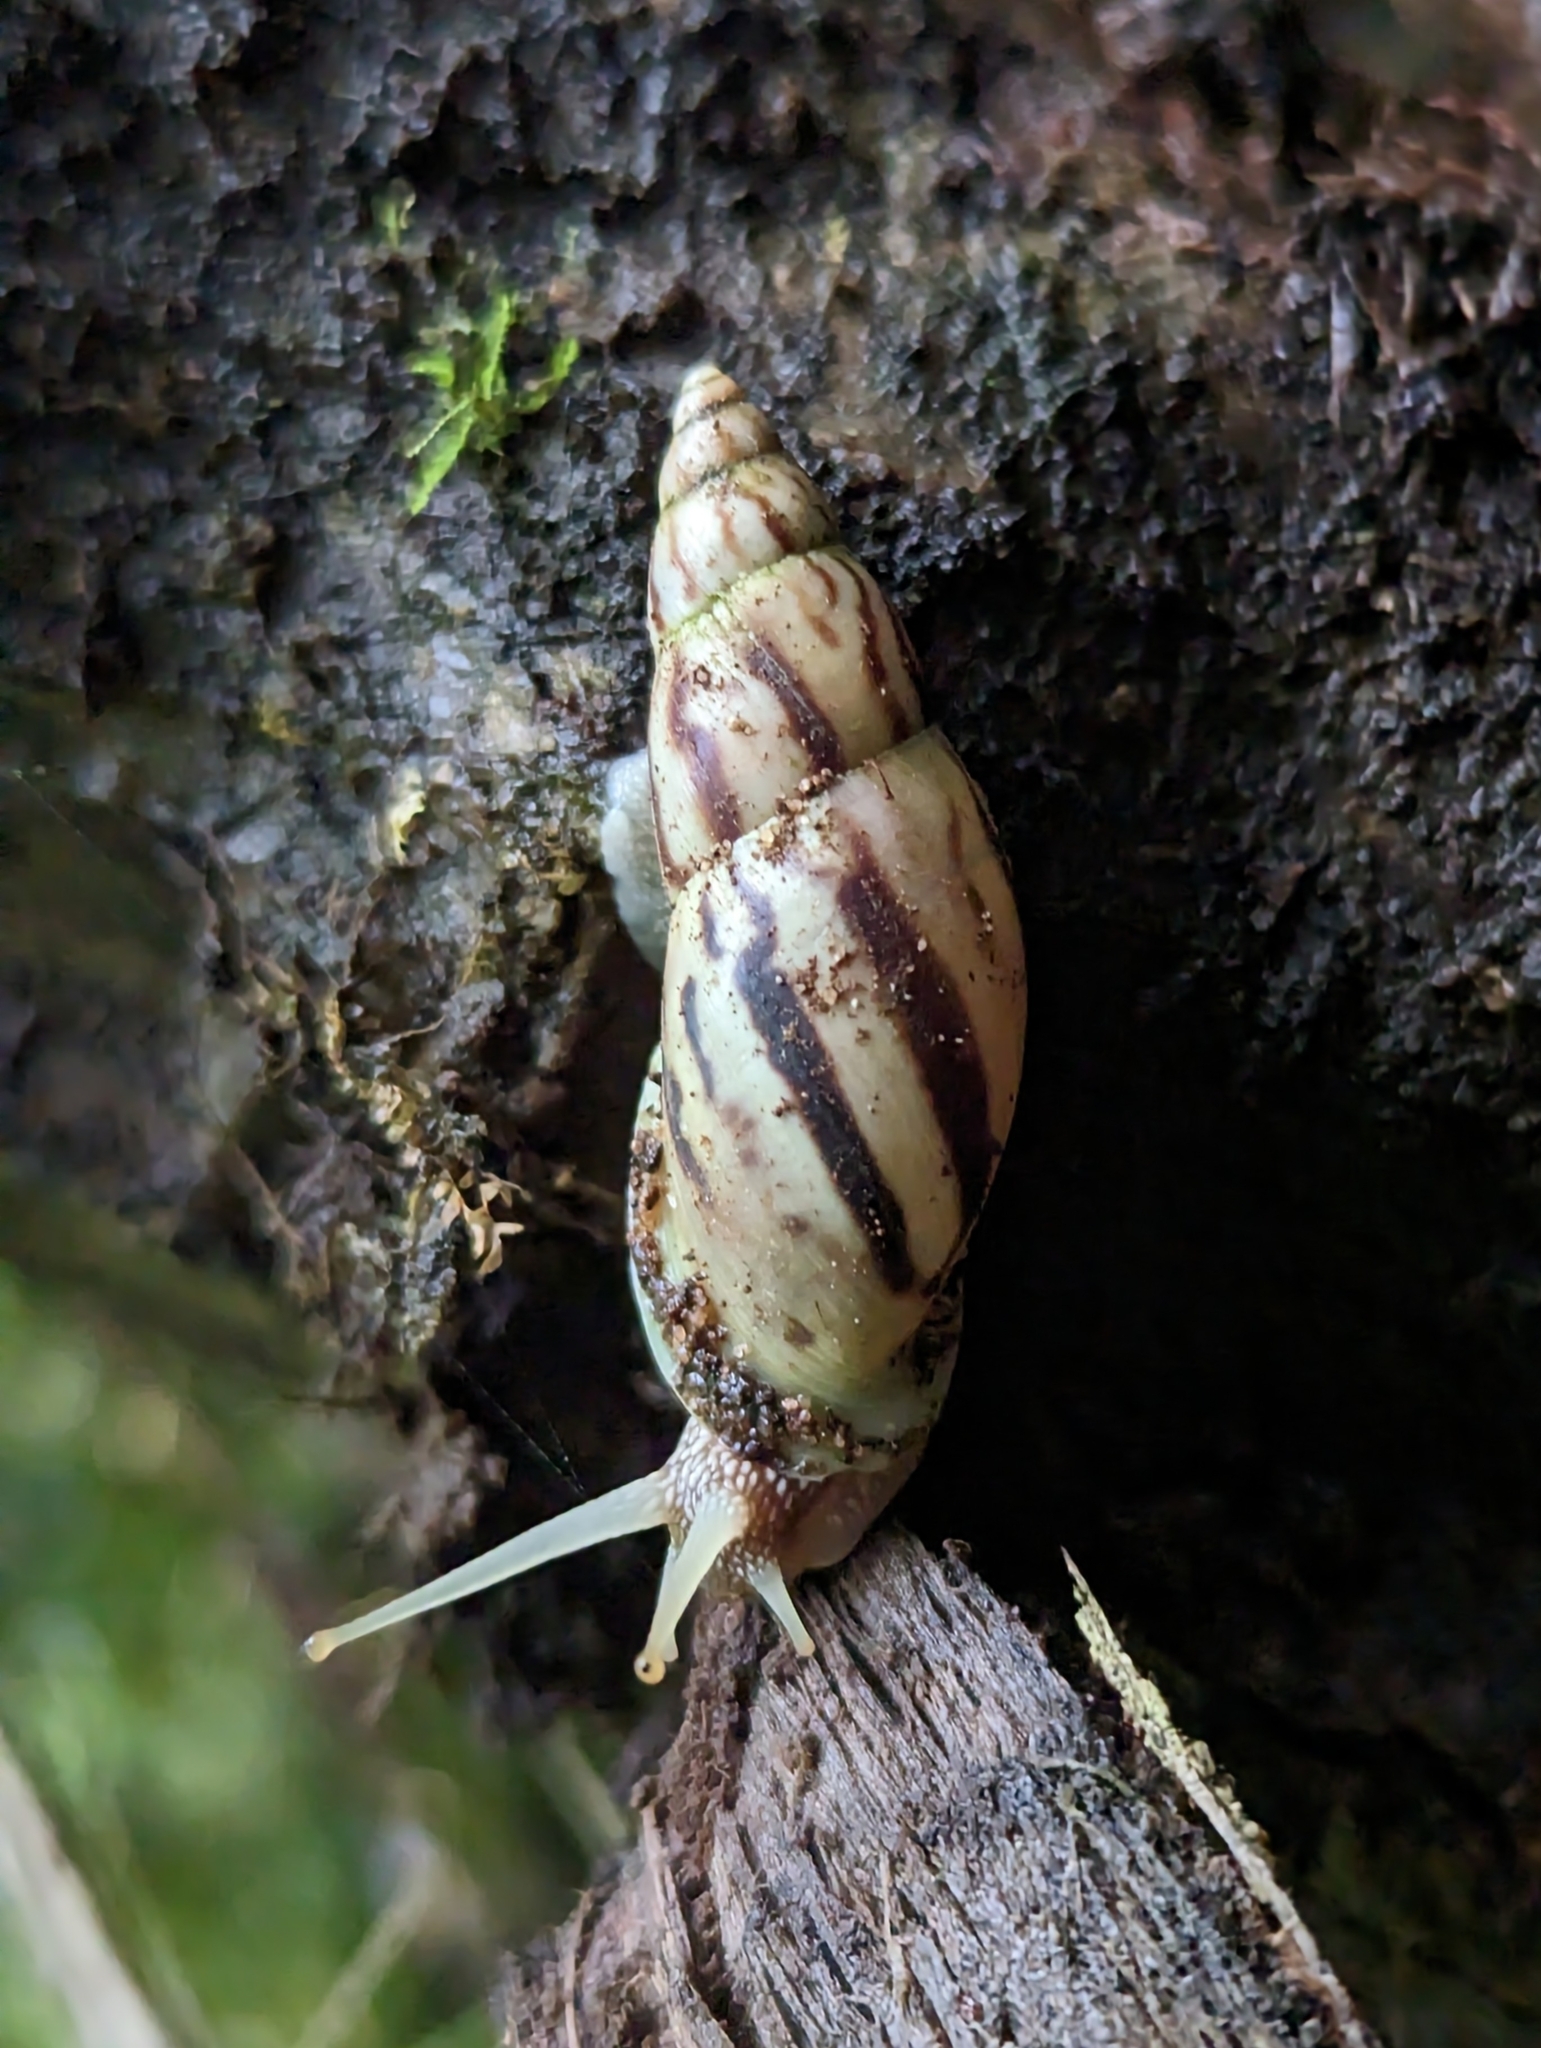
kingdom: Animalia
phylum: Mollusca
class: Gastropoda
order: Stylommatophora
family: Bulimulidae
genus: Drymaeus
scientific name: Drymaeus petasites
